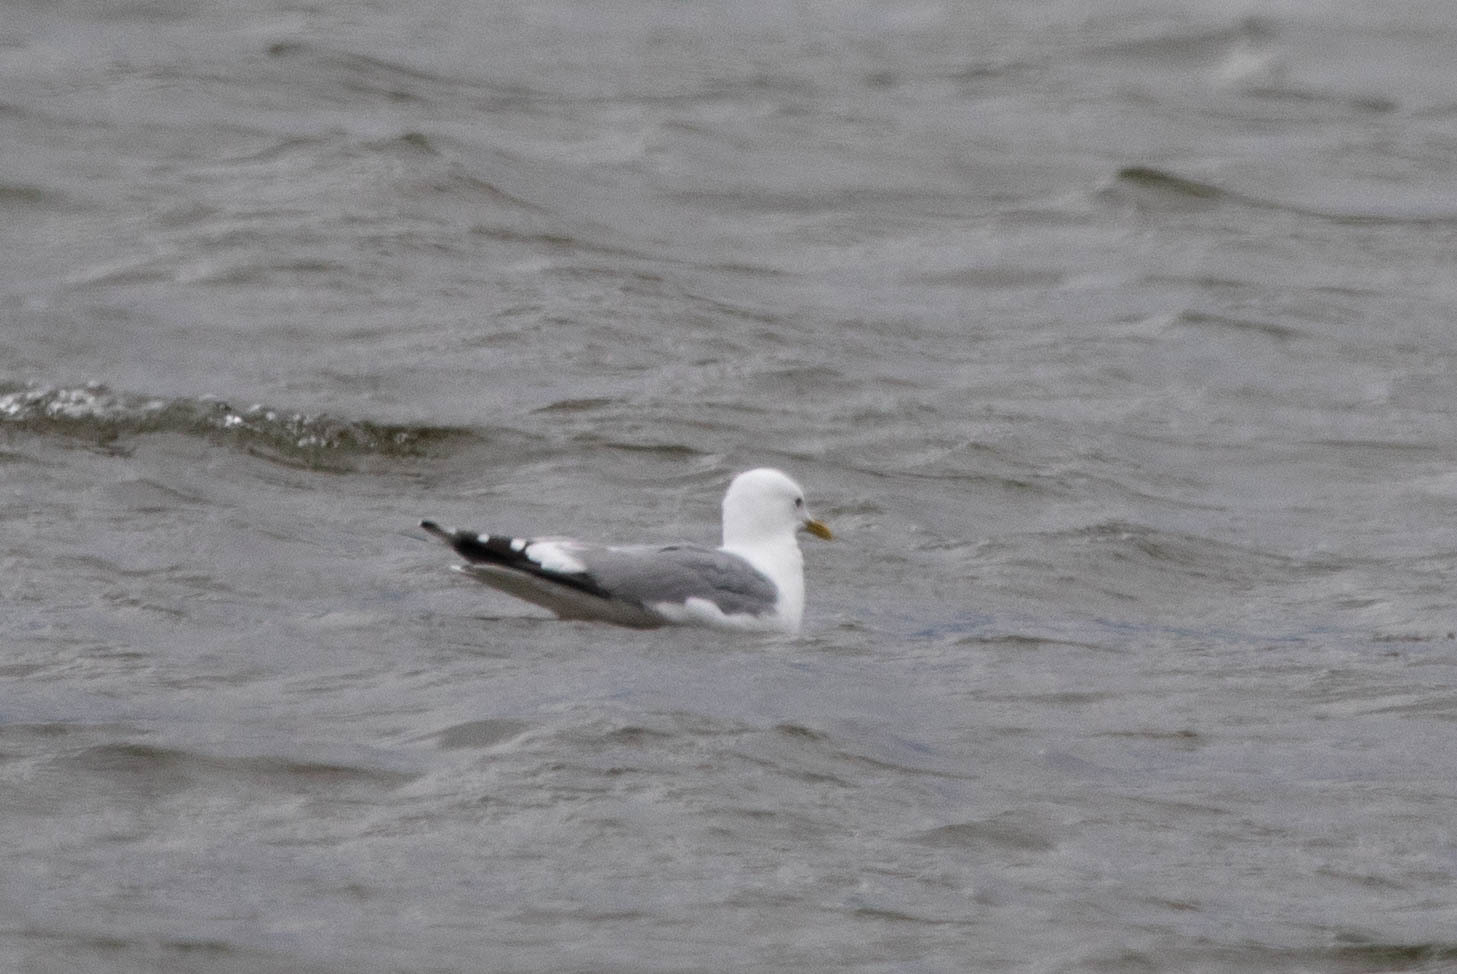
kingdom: Animalia
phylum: Chordata
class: Aves
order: Charadriiformes
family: Laridae
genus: Larus
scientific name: Larus brachyrhynchus
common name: Short-billed gull
